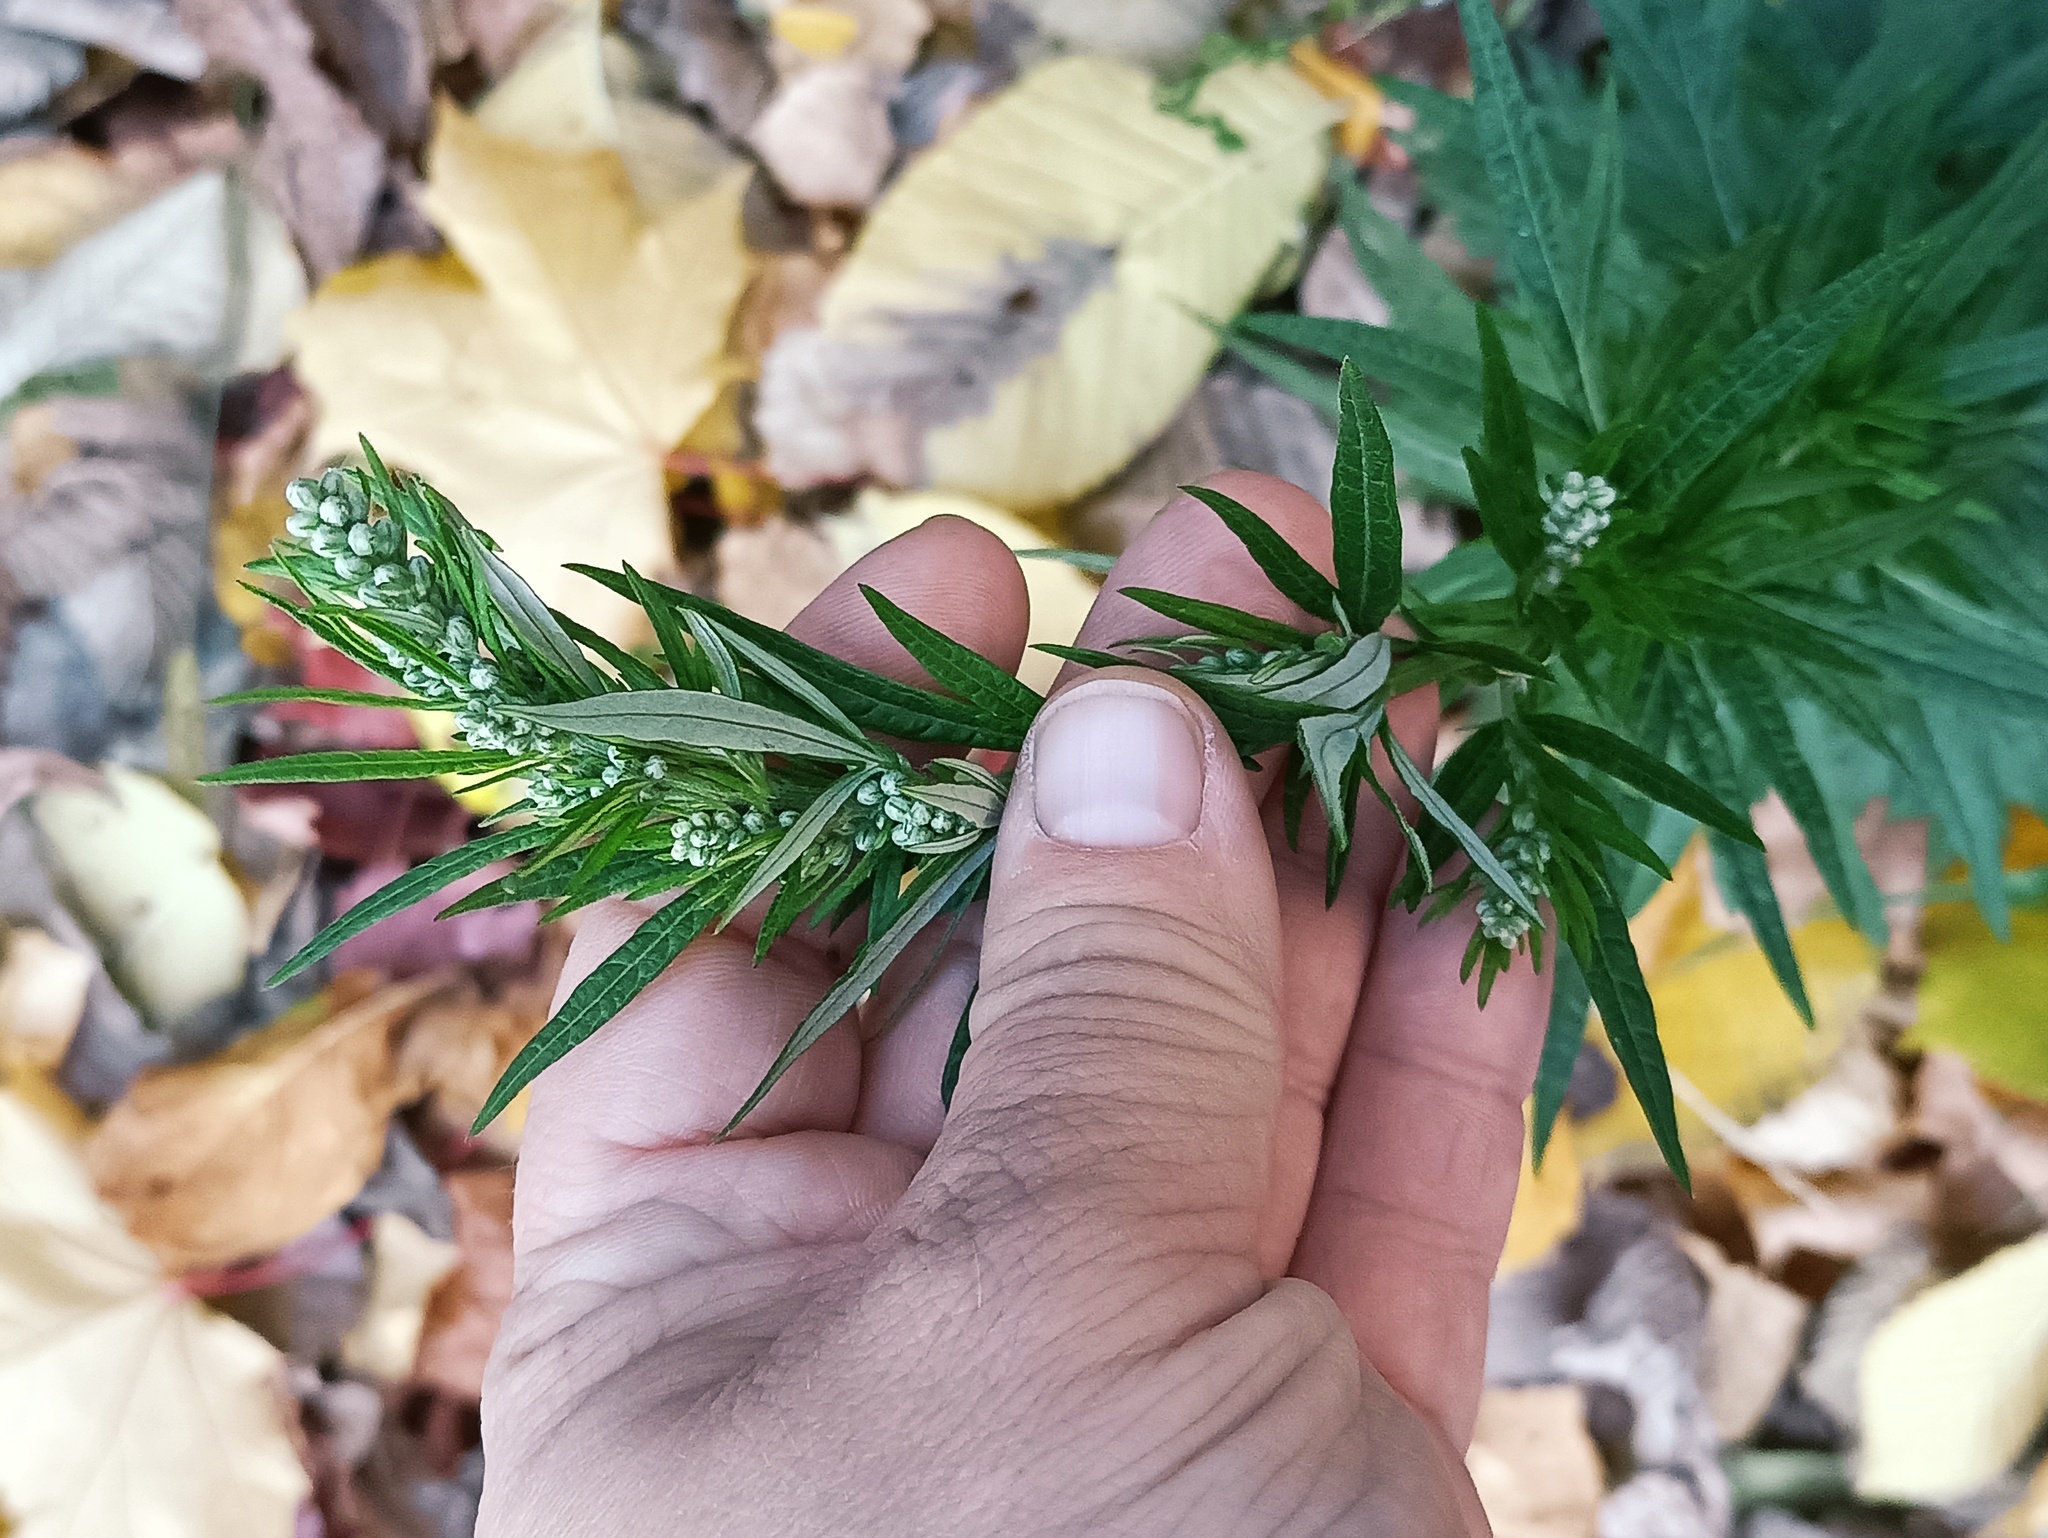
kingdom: Plantae
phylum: Tracheophyta
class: Magnoliopsida
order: Asterales
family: Asteraceae
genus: Artemisia
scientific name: Artemisia vulgaris
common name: Mugwort
